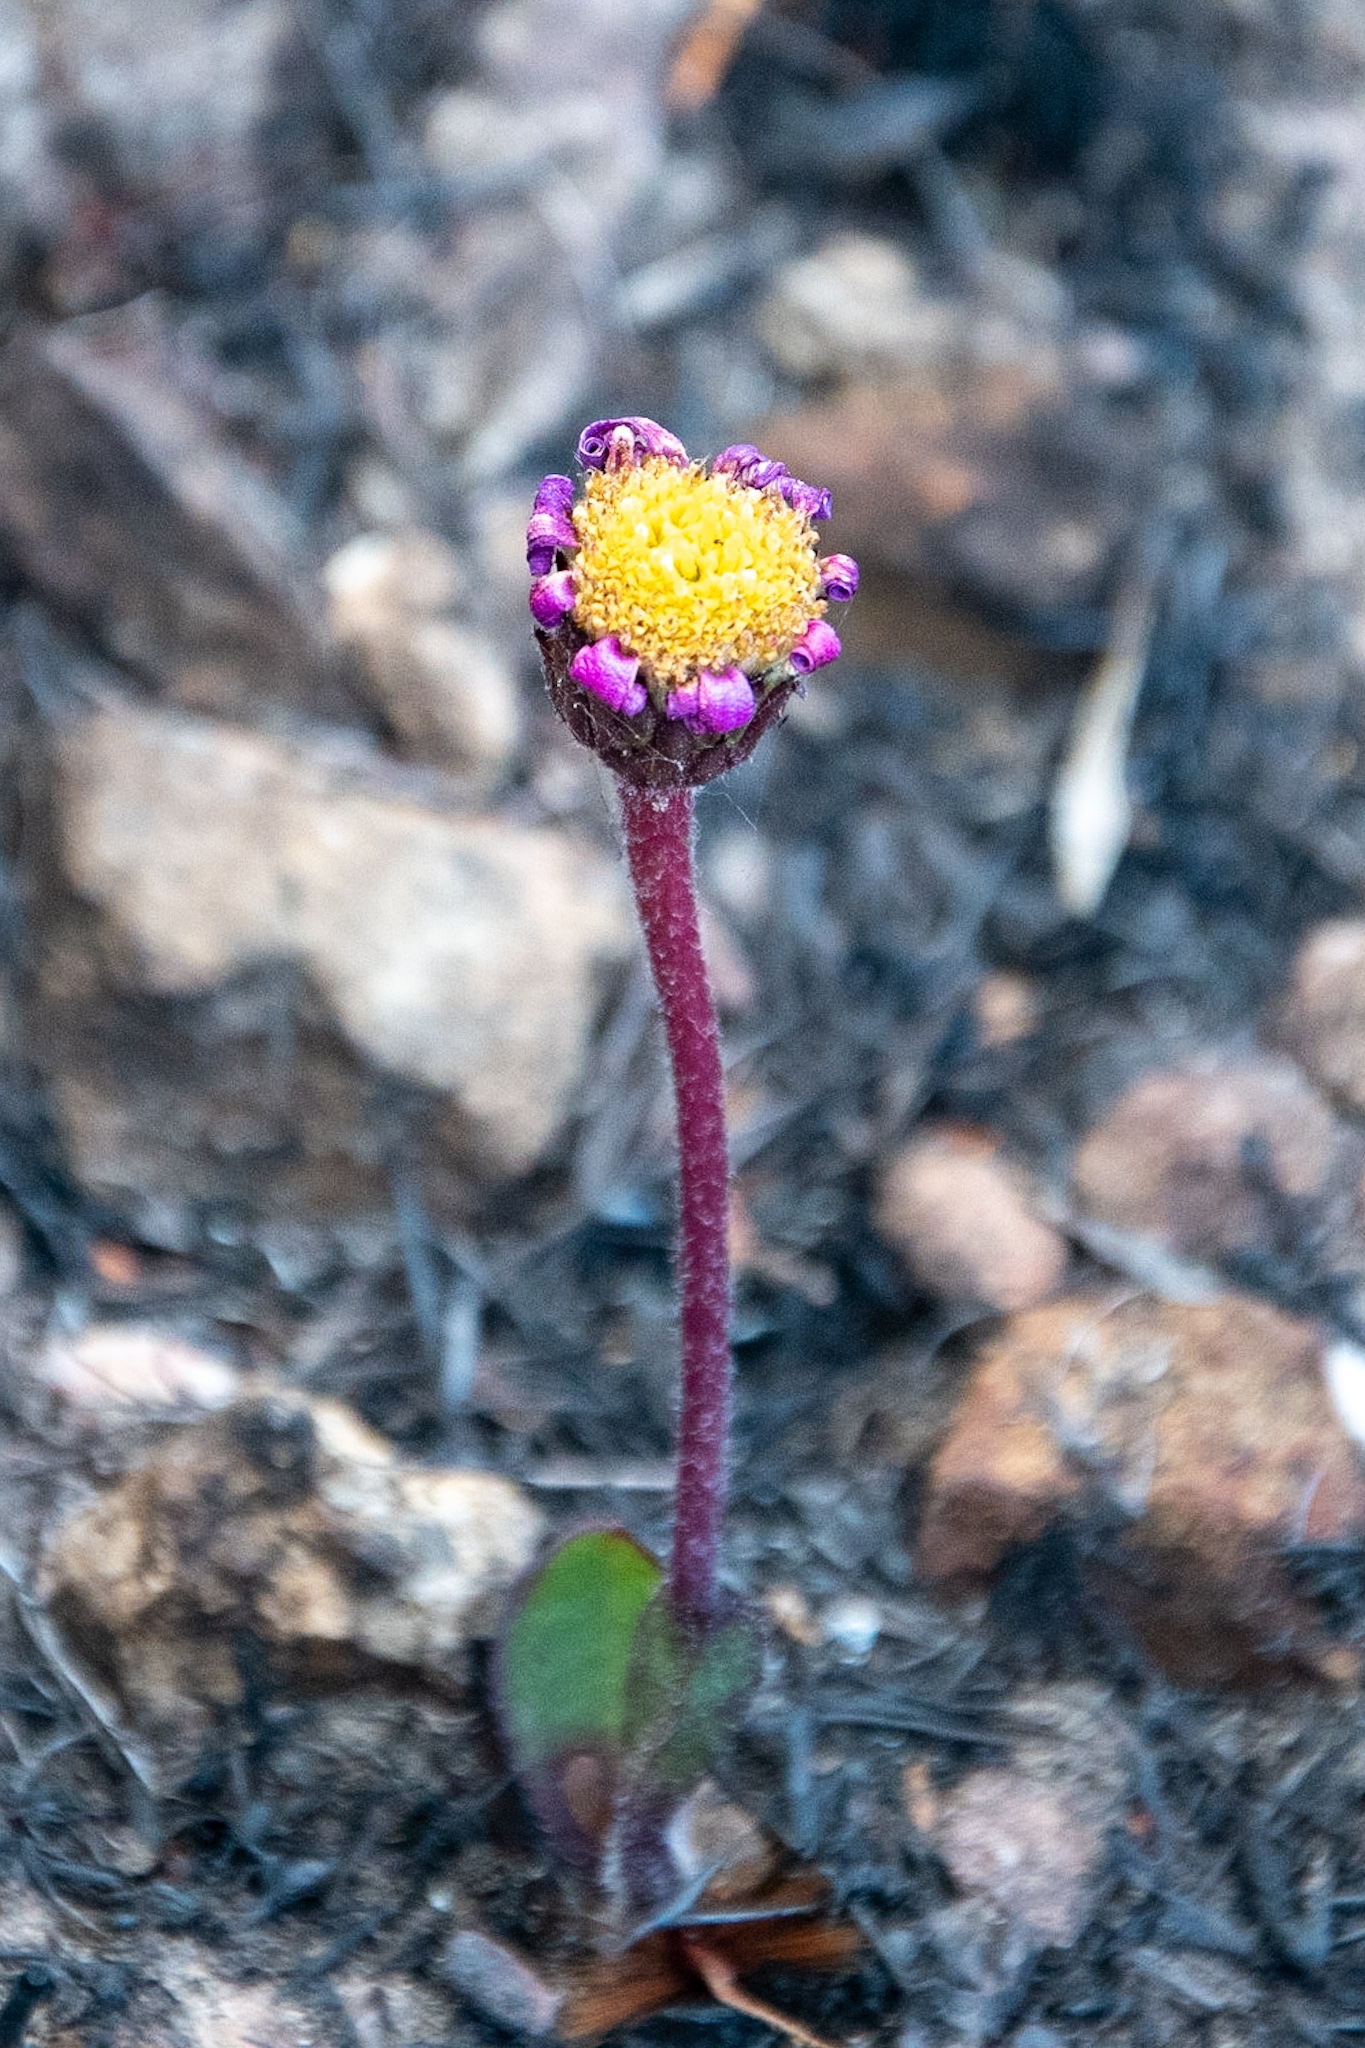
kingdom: Plantae
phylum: Tracheophyta
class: Magnoliopsida
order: Asterales
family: Asteraceae
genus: Mairia
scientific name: Mairia coriacea
